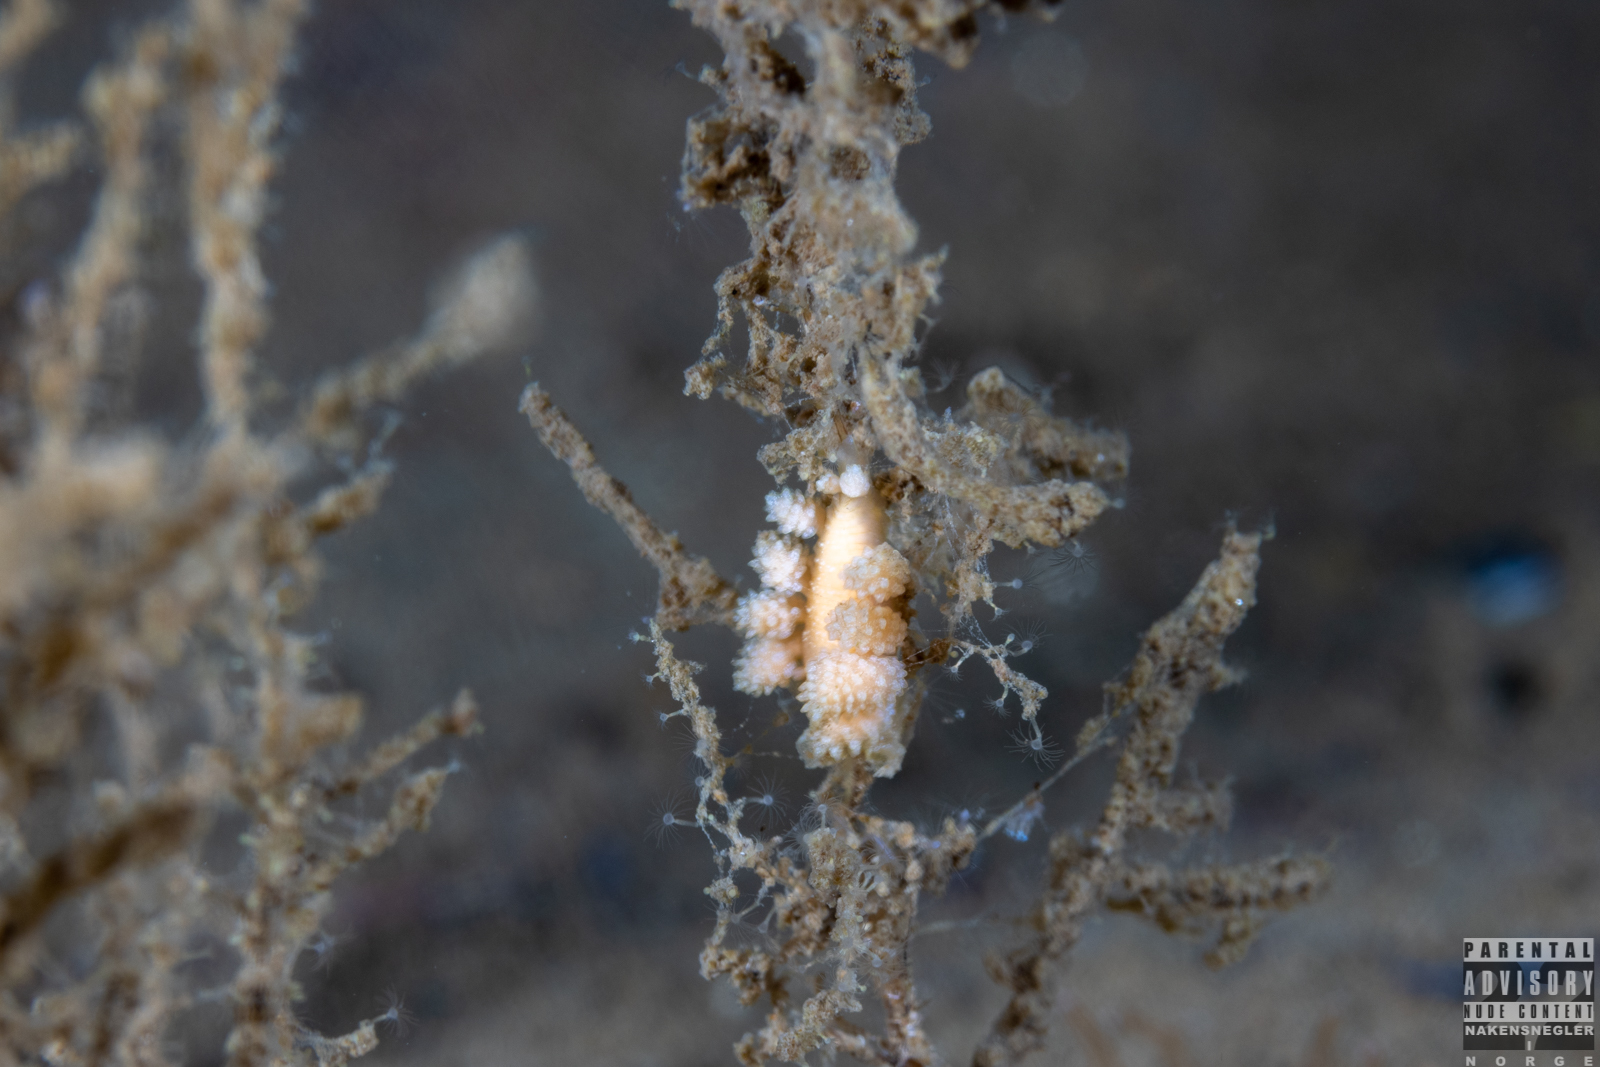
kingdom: Animalia
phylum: Mollusca
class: Gastropoda
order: Nudibranchia
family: Dotidae
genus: Doto
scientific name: Doto fragilis
